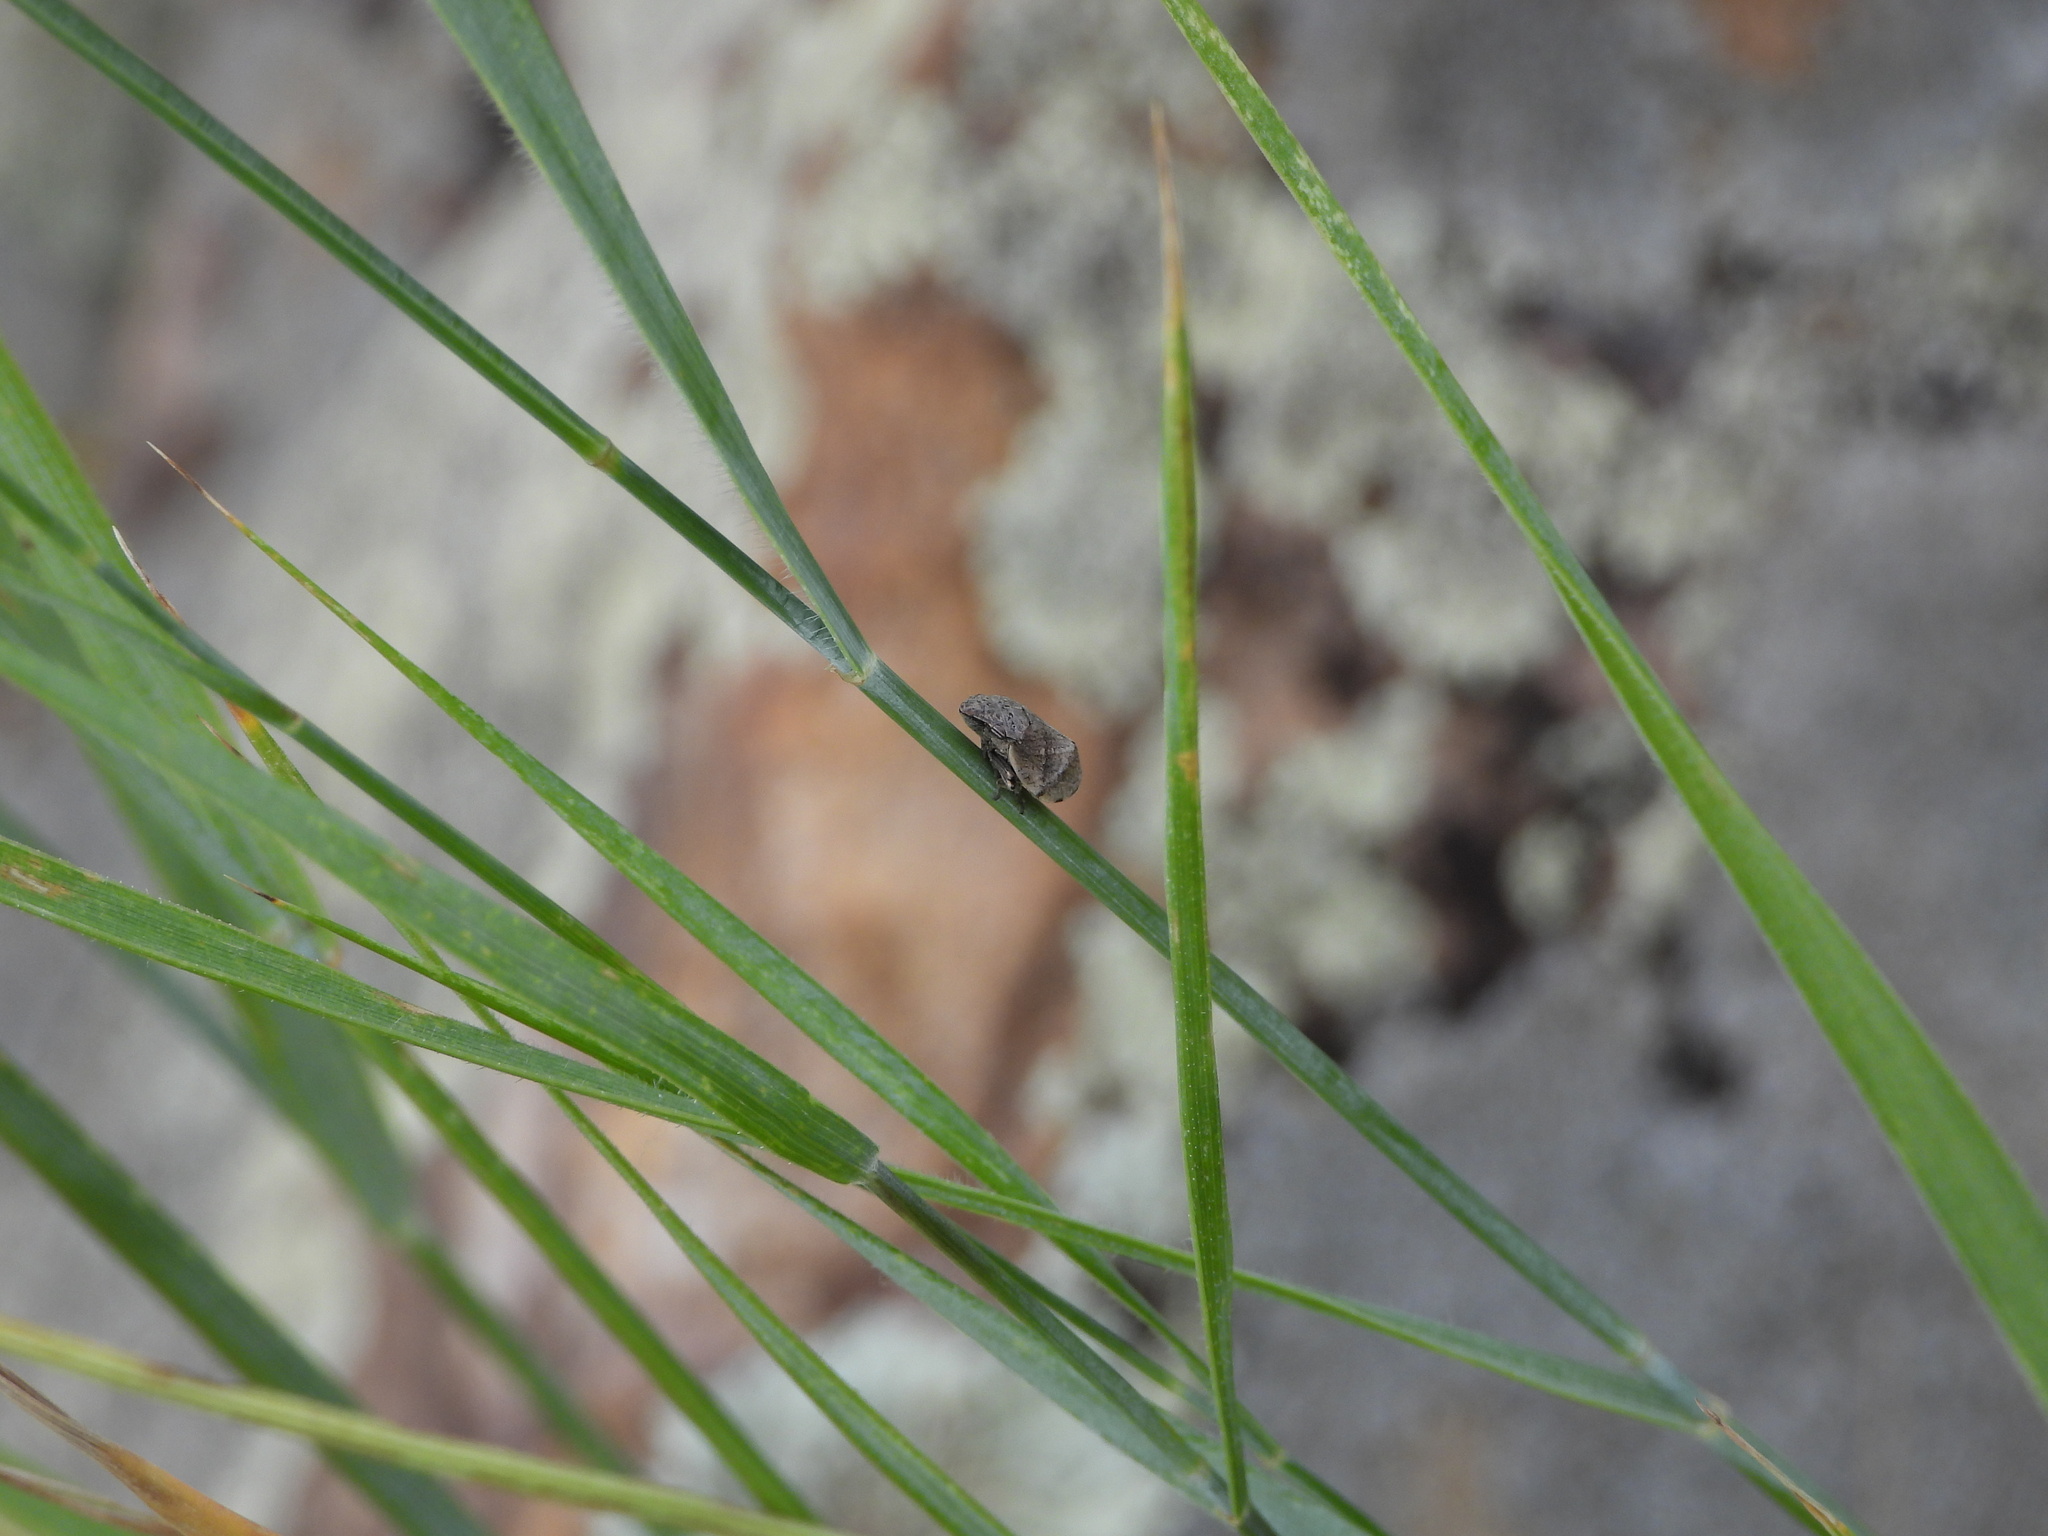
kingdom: Animalia
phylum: Arthropoda
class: Insecta
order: Hemiptera
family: Aphrophoridae
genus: Lepyronia
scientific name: Lepyronia gibbosa
